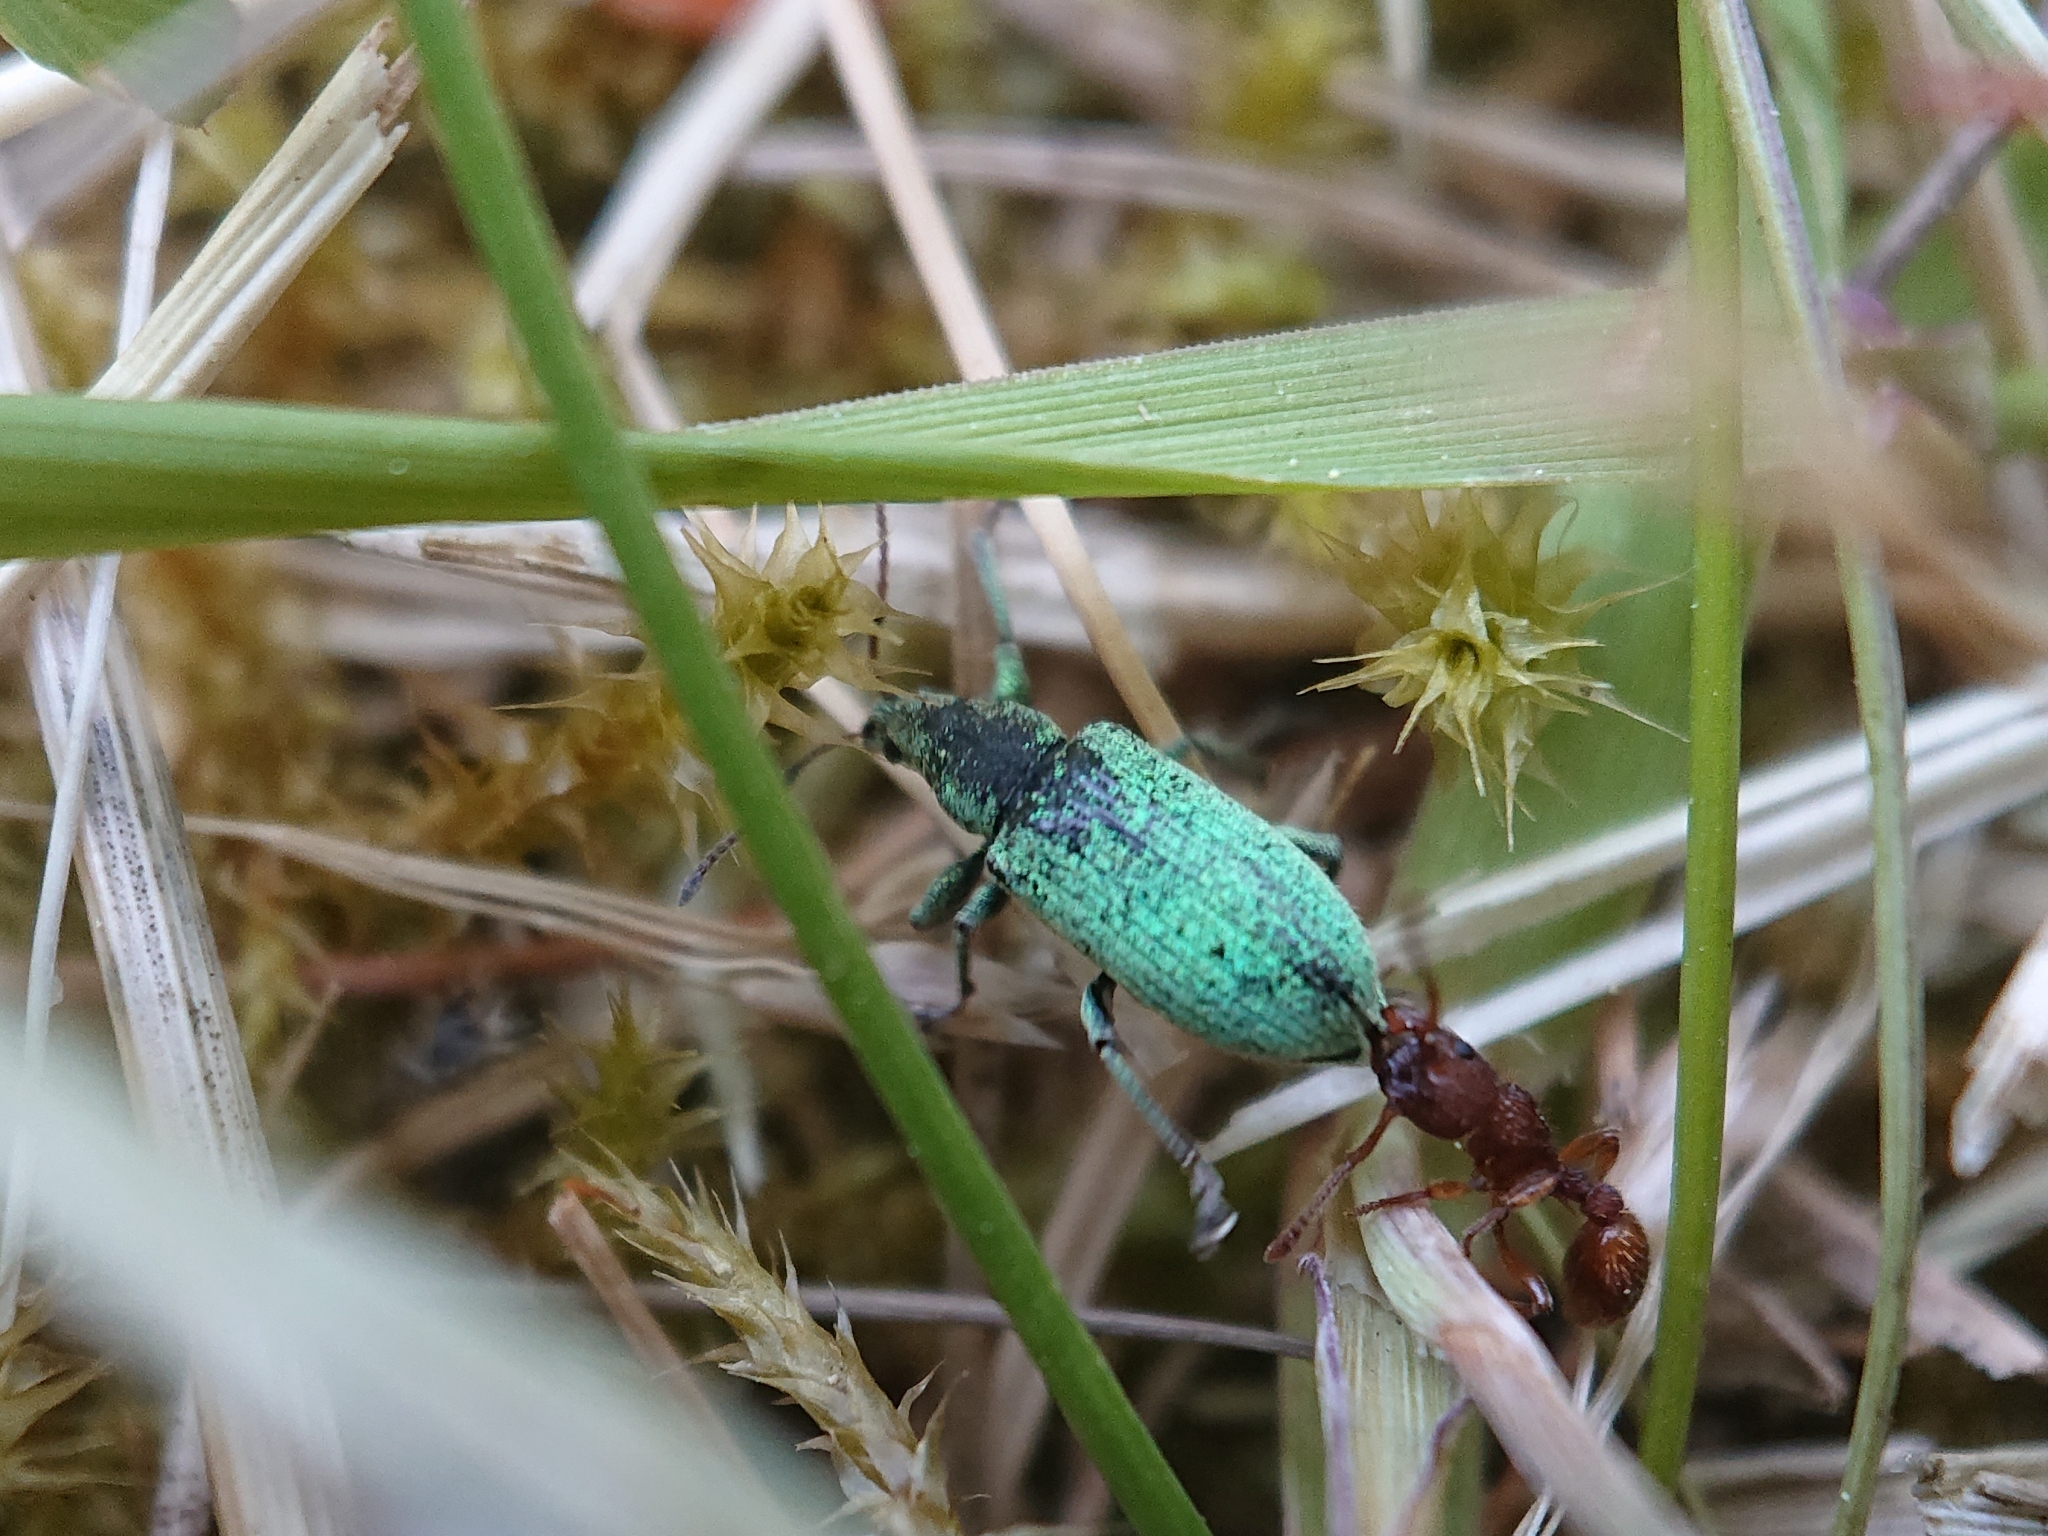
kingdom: Animalia
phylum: Arthropoda
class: Insecta
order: Coleoptera
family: Curculionidae
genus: Phyllobius
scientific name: Phyllobius maculicornis
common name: Green leaf weevil
